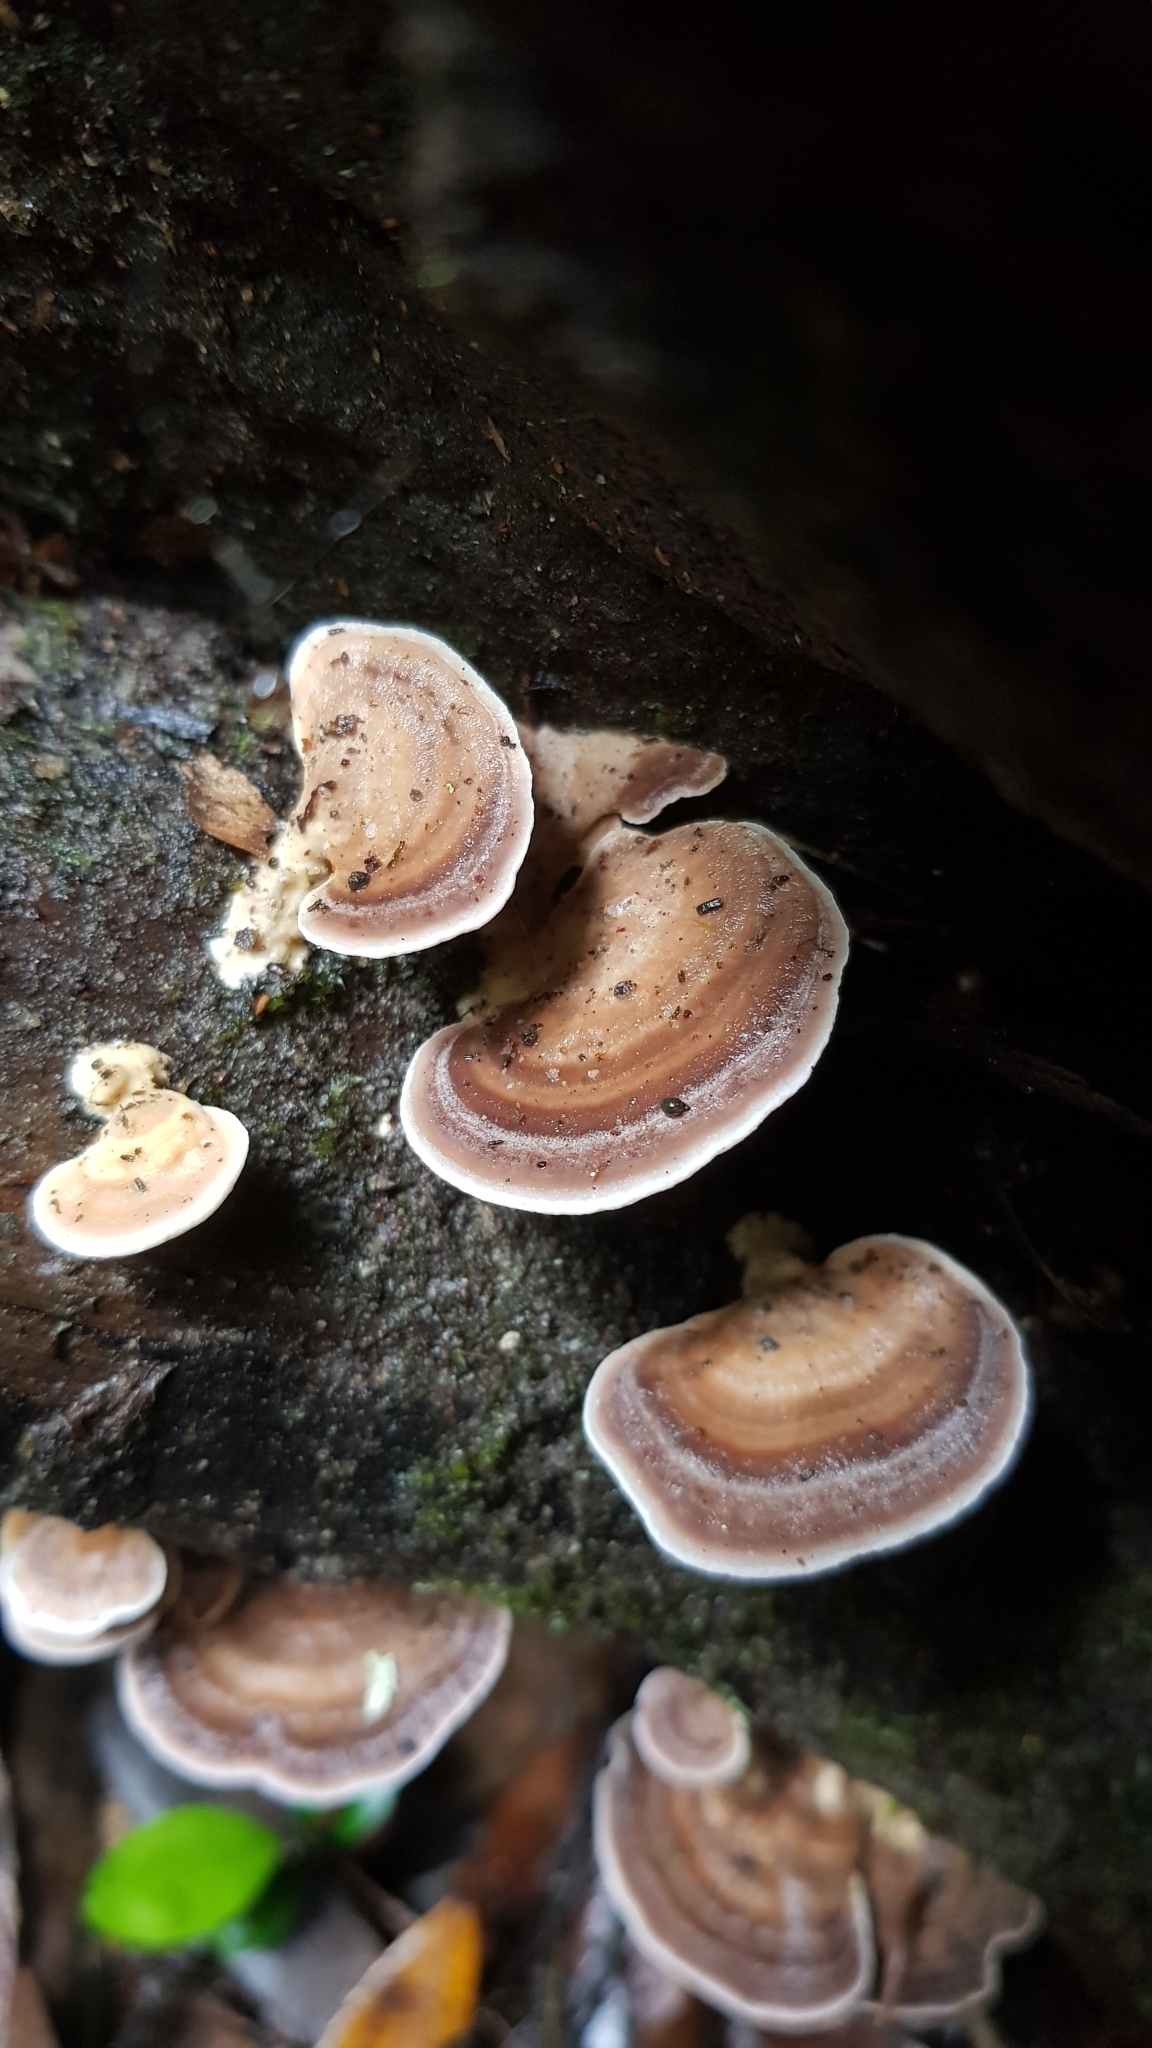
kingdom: Fungi
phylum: Basidiomycota
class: Agaricomycetes
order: Polyporales
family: Polyporaceae
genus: Microporus
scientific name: Microporus affinis
